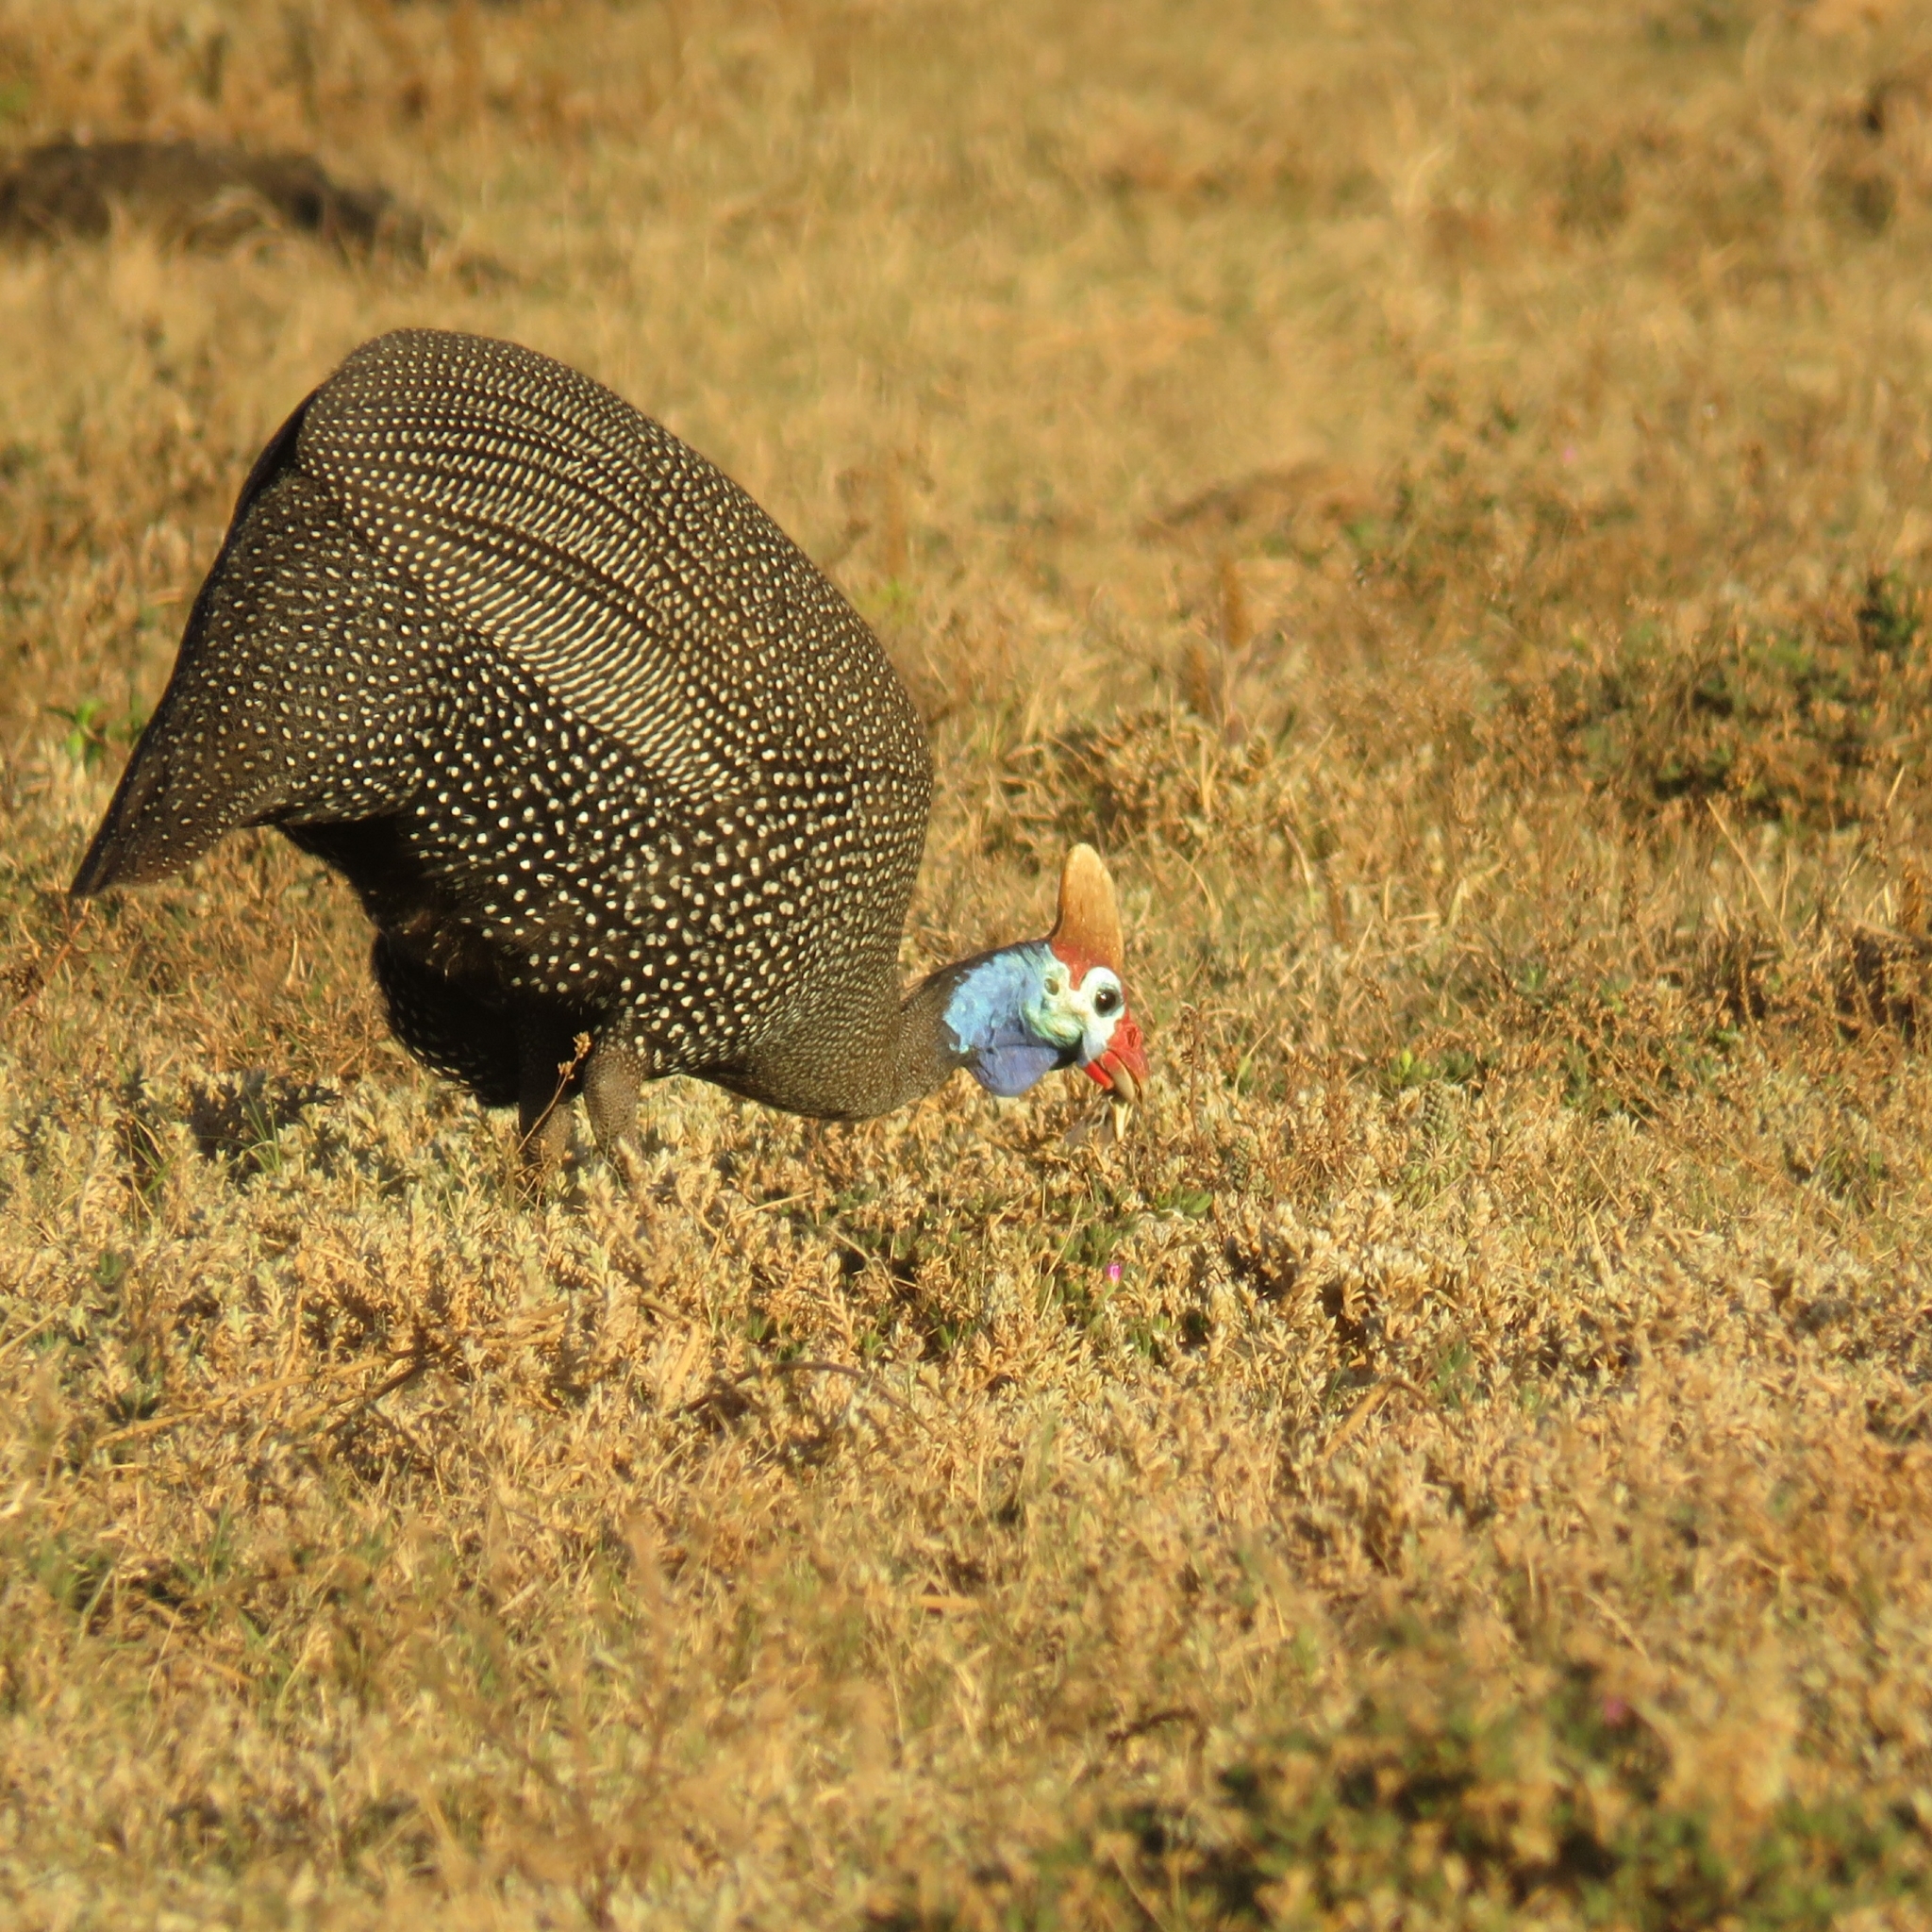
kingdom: Animalia
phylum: Chordata
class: Aves
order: Galliformes
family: Numididae
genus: Numida
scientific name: Numida meleagris
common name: Helmeted guineafowl
